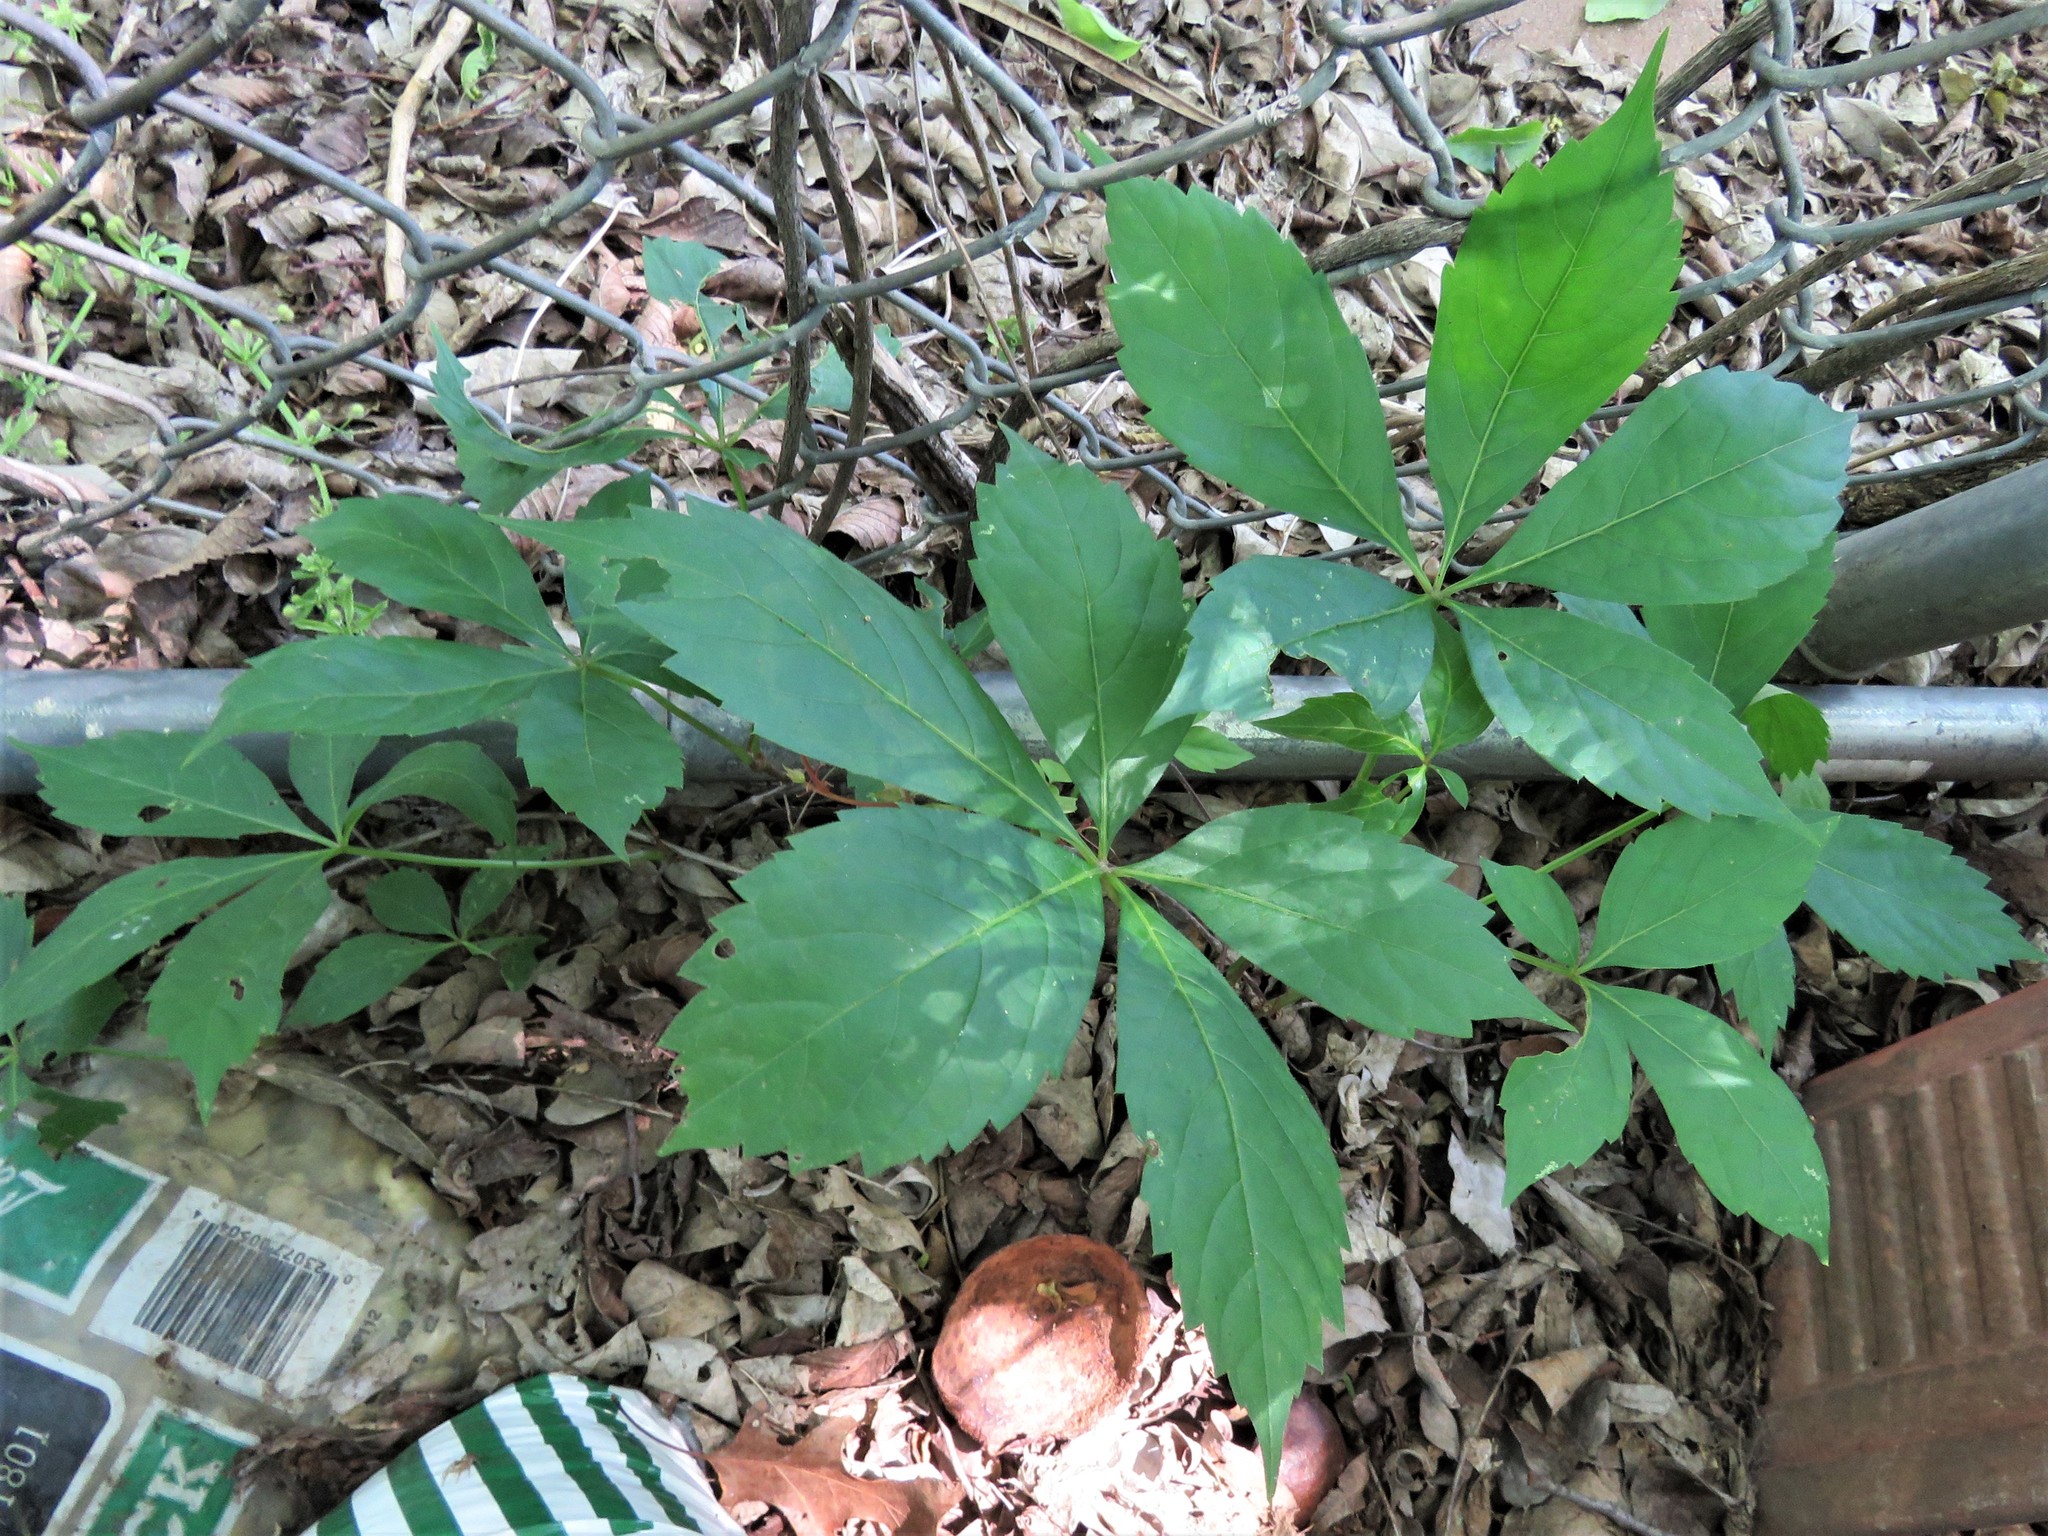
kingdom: Plantae
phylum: Tracheophyta
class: Magnoliopsida
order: Vitales
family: Vitaceae
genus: Parthenocissus
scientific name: Parthenocissus quinquefolia
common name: Virginia-creeper
